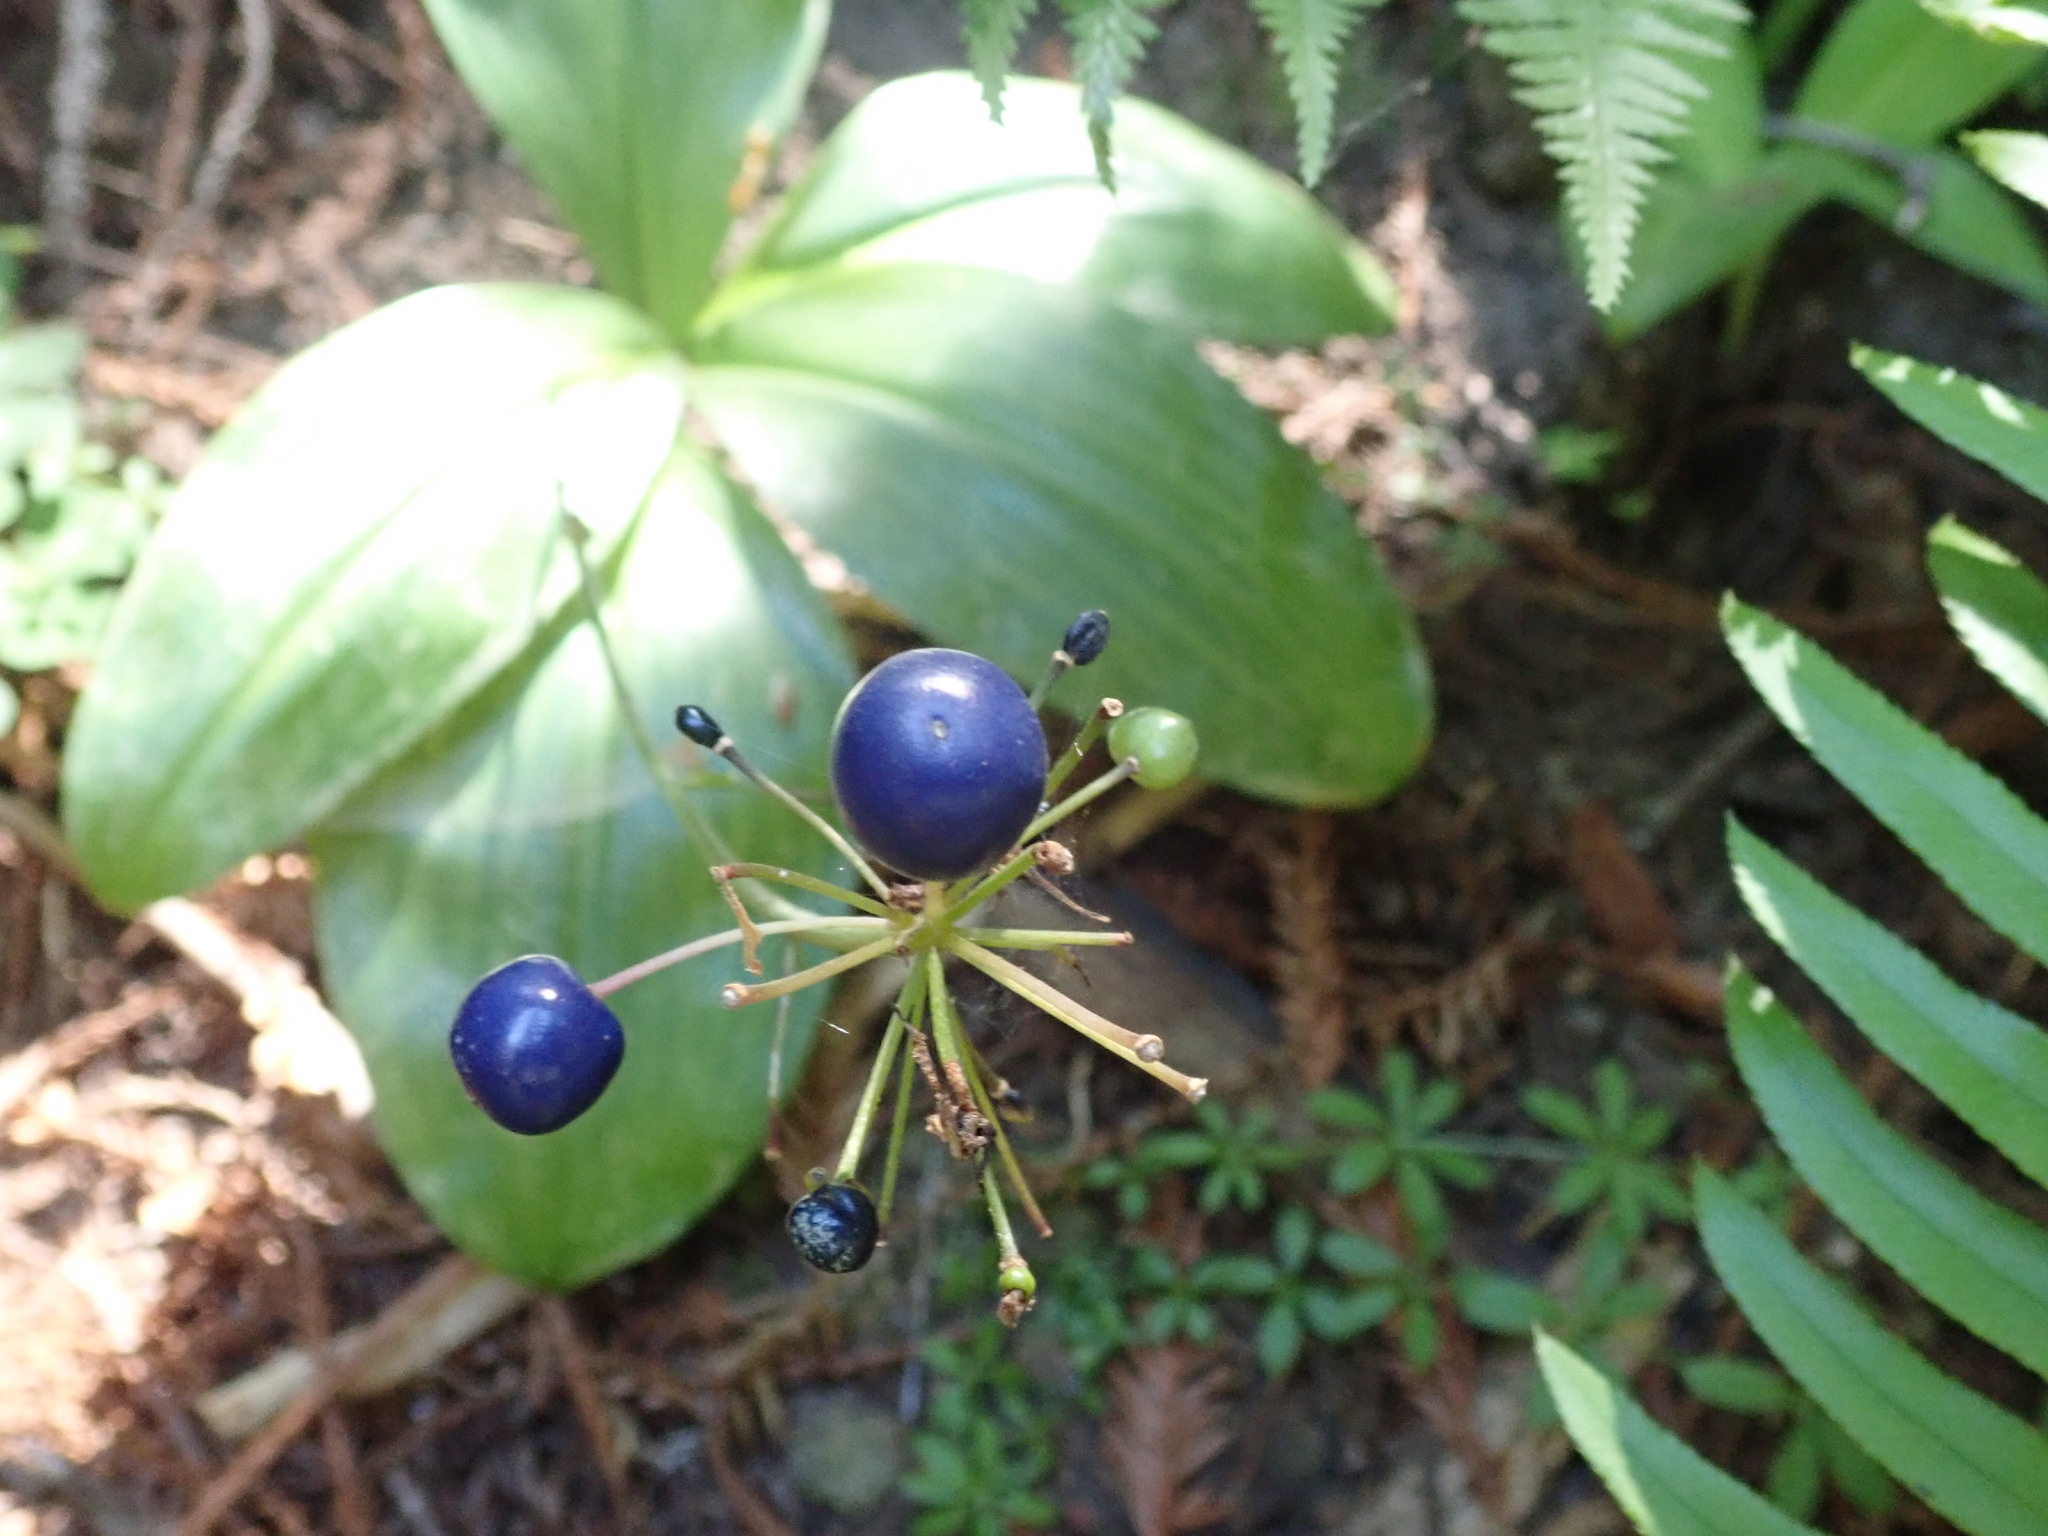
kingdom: Plantae
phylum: Tracheophyta
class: Liliopsida
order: Liliales
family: Liliaceae
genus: Clintonia
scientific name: Clintonia andrewsiana
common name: Red clintonia
